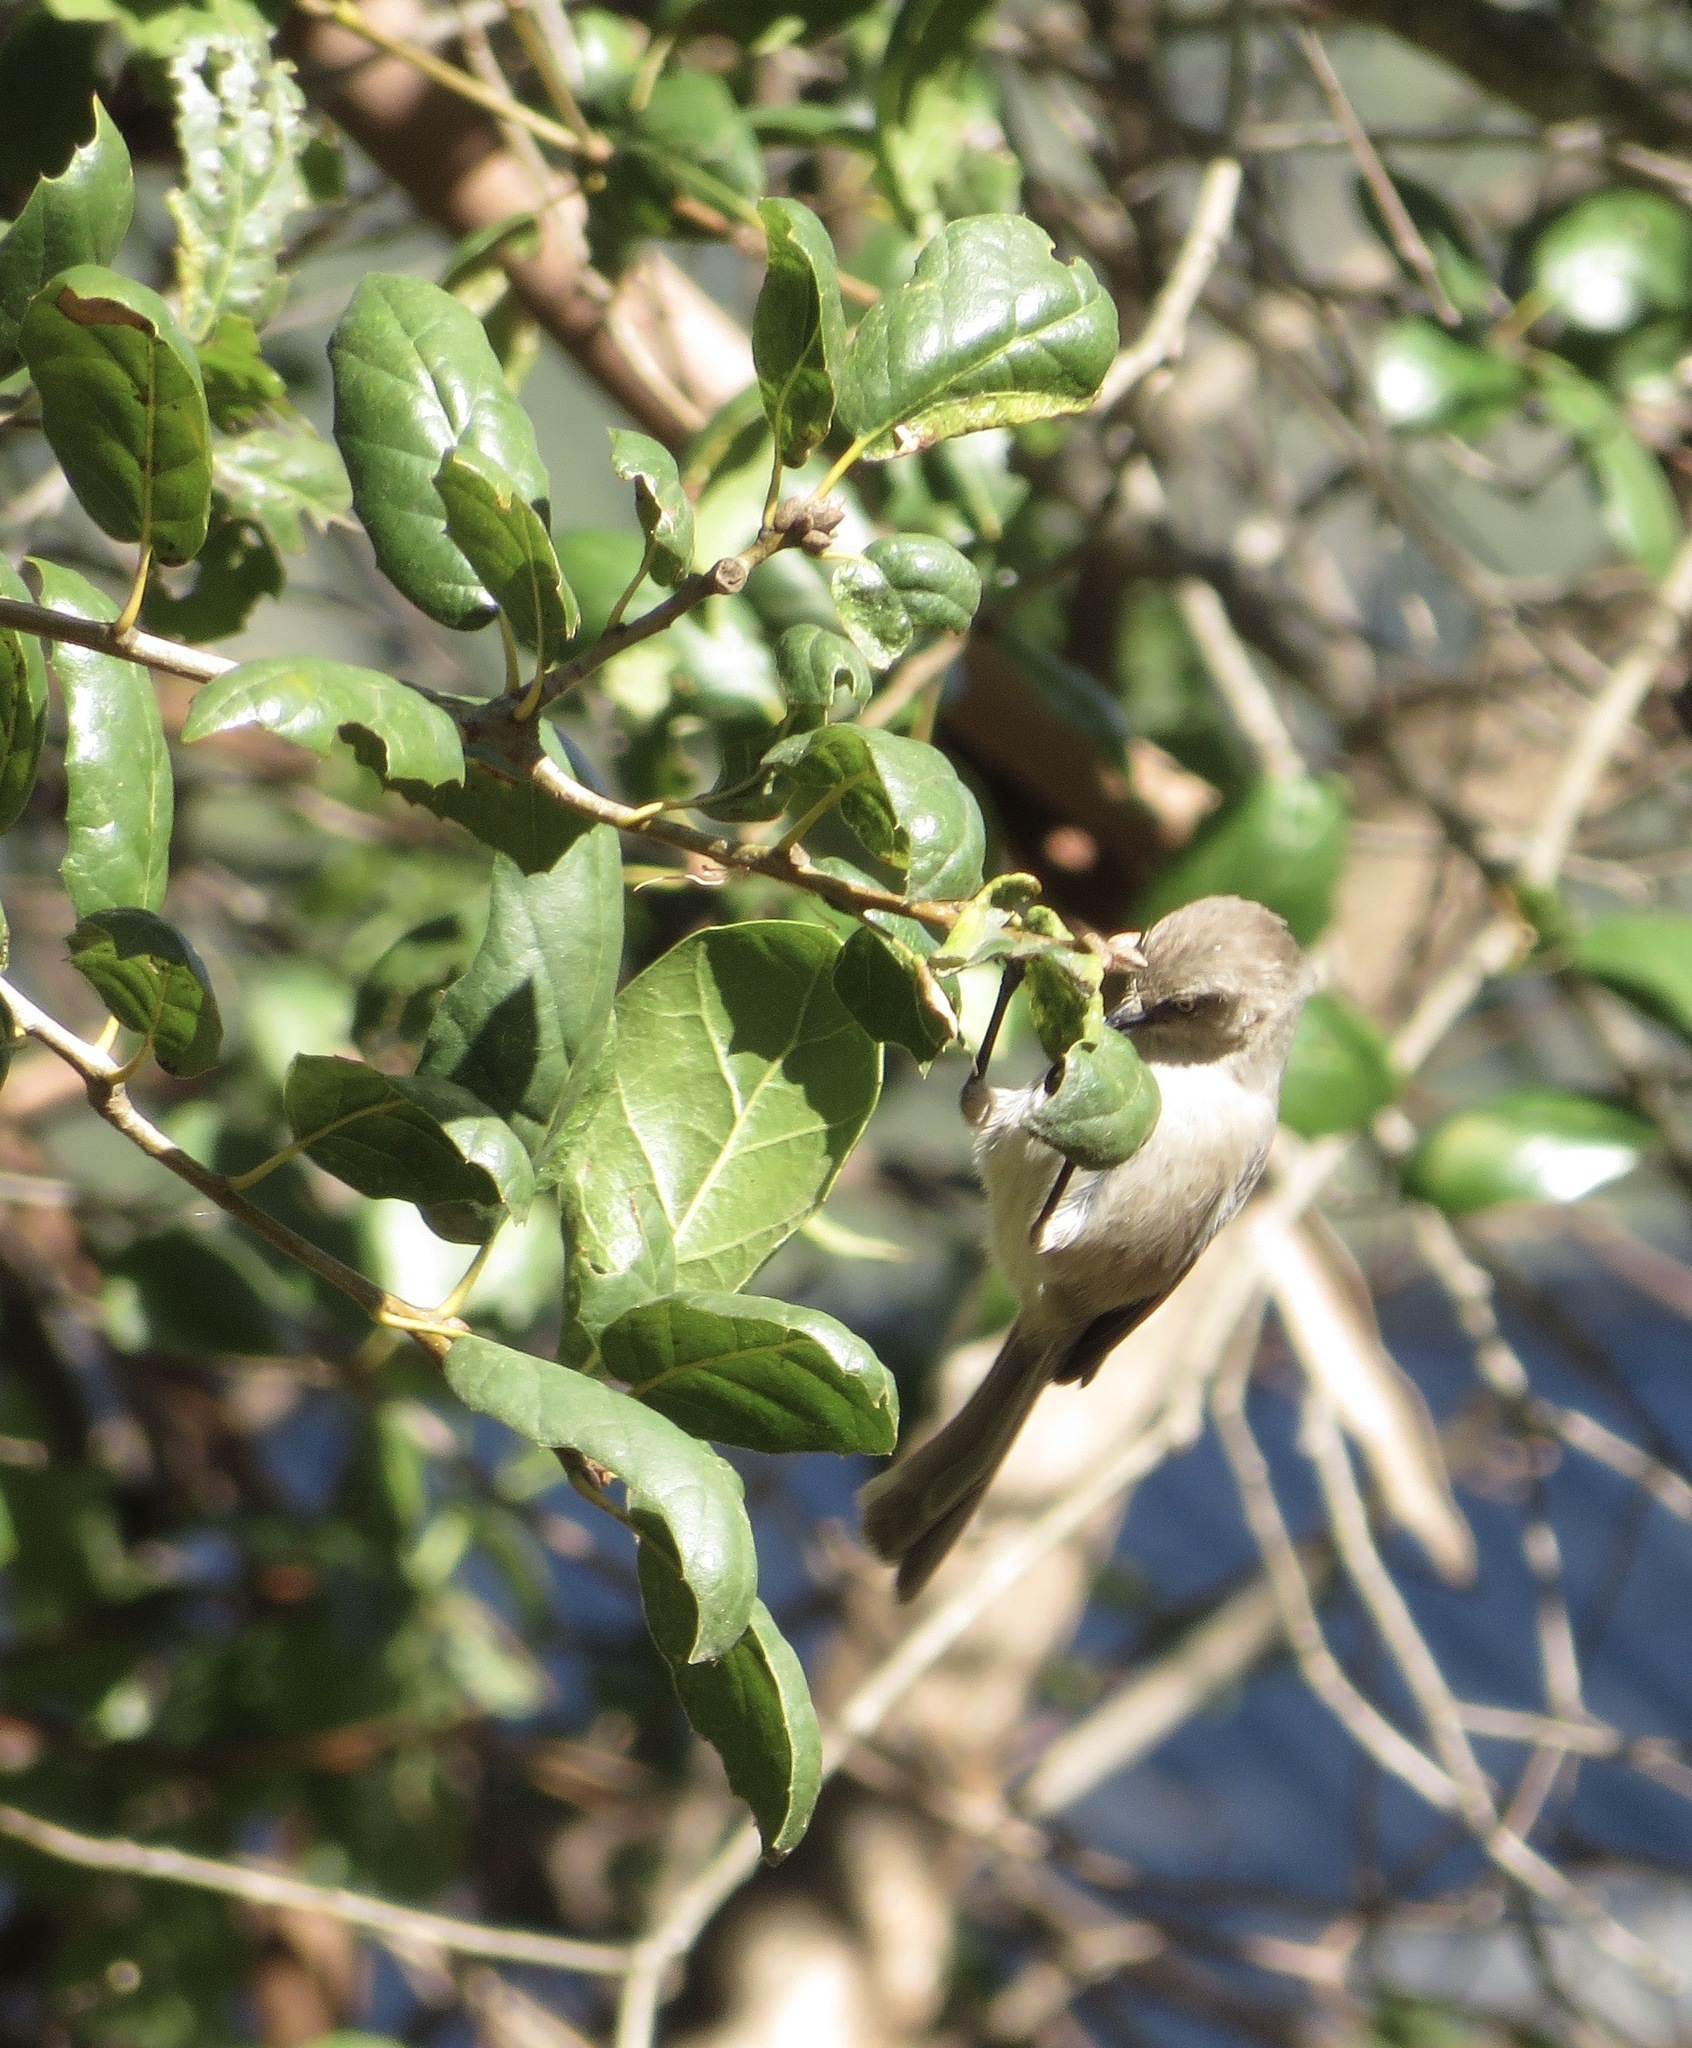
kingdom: Animalia
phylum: Chordata
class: Aves
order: Passeriformes
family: Aegithalidae
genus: Psaltriparus
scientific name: Psaltriparus minimus
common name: American bushtit
